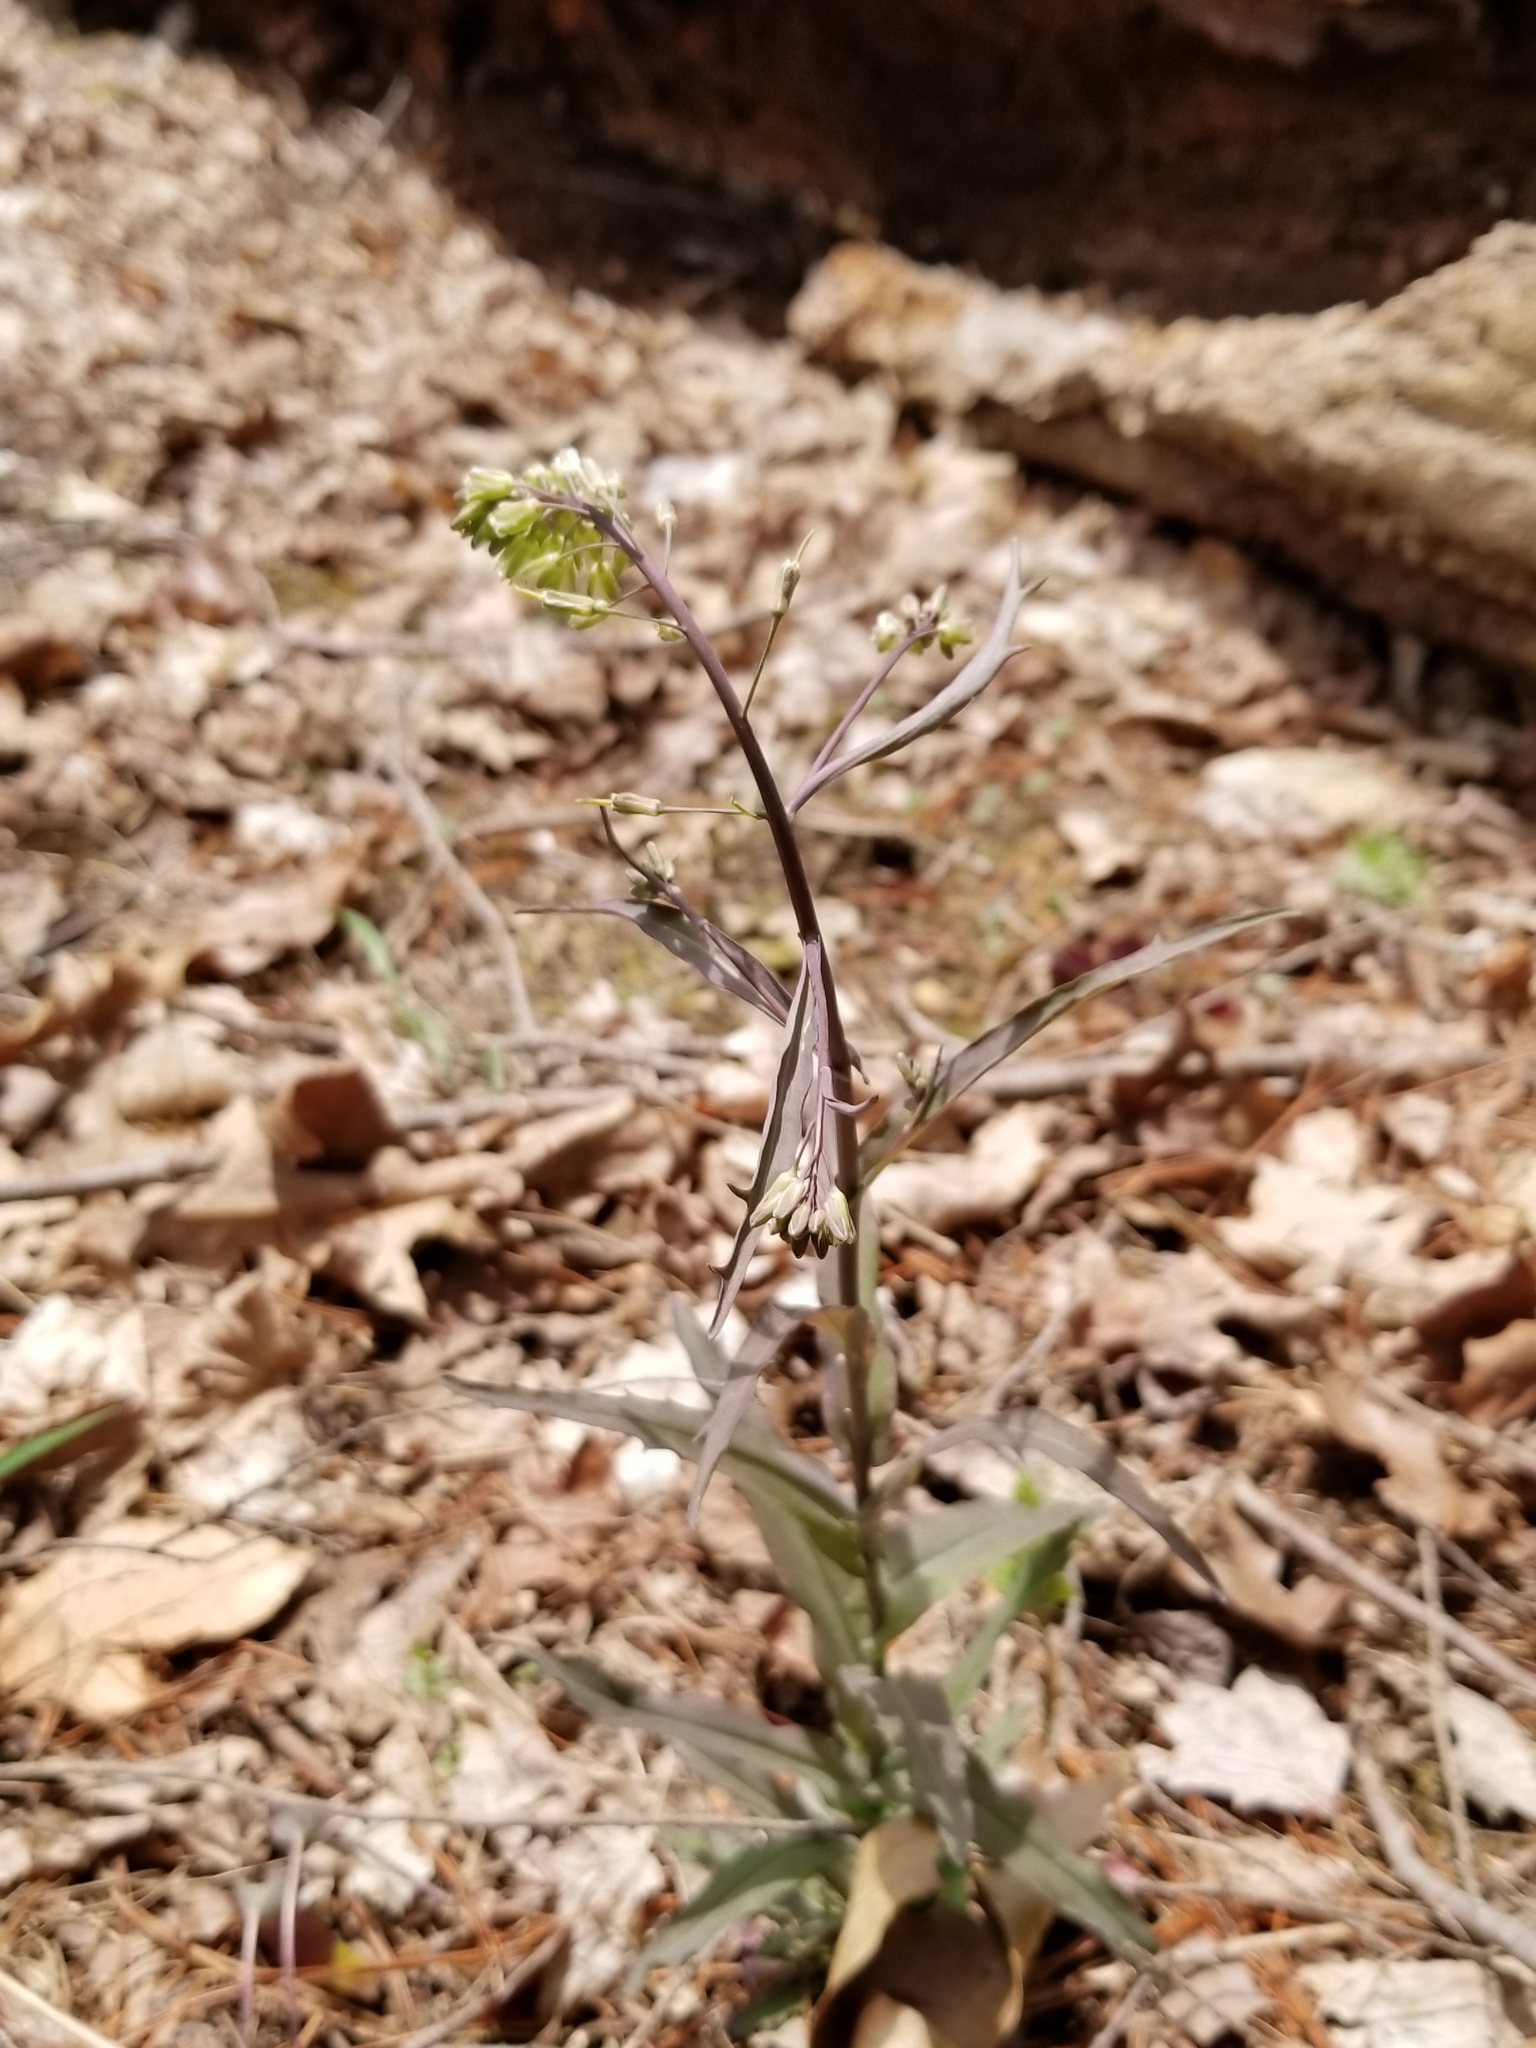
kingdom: Plantae
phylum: Tracheophyta
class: Magnoliopsida
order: Brassicales
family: Brassicaceae
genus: Borodinia
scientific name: Borodinia laevigata
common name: Smooth rockcress
